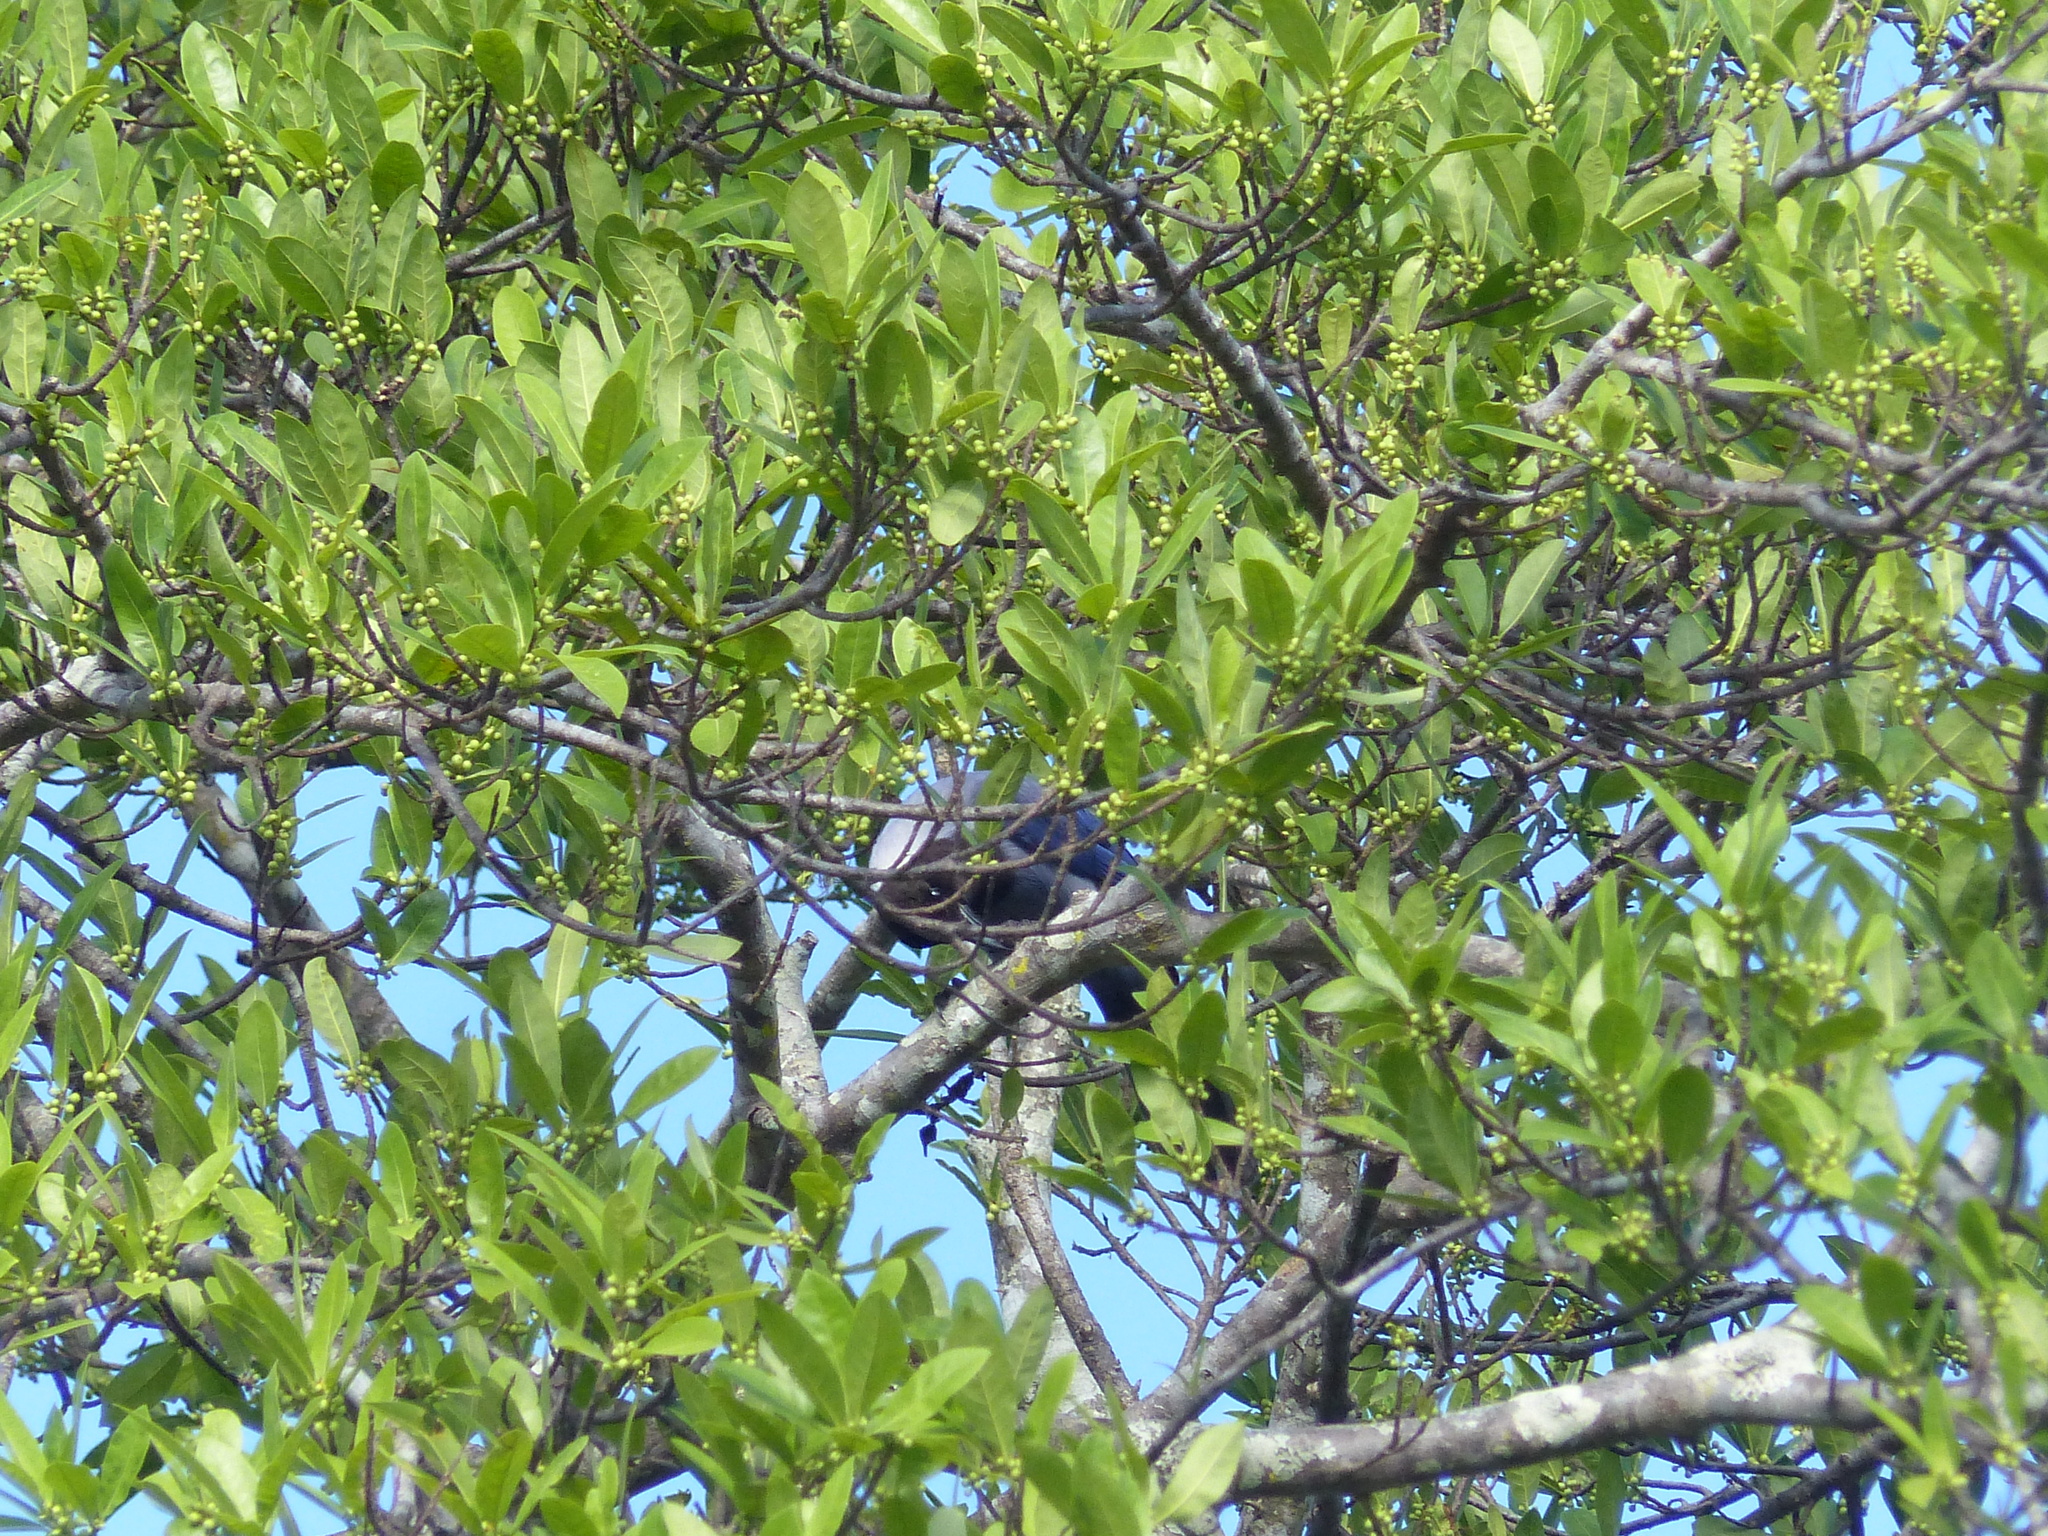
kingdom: Animalia
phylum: Chordata
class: Aves
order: Passeriformes
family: Corvidae
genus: Cyanocorax
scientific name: Cyanocorax violaceus
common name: Violaceous jay
